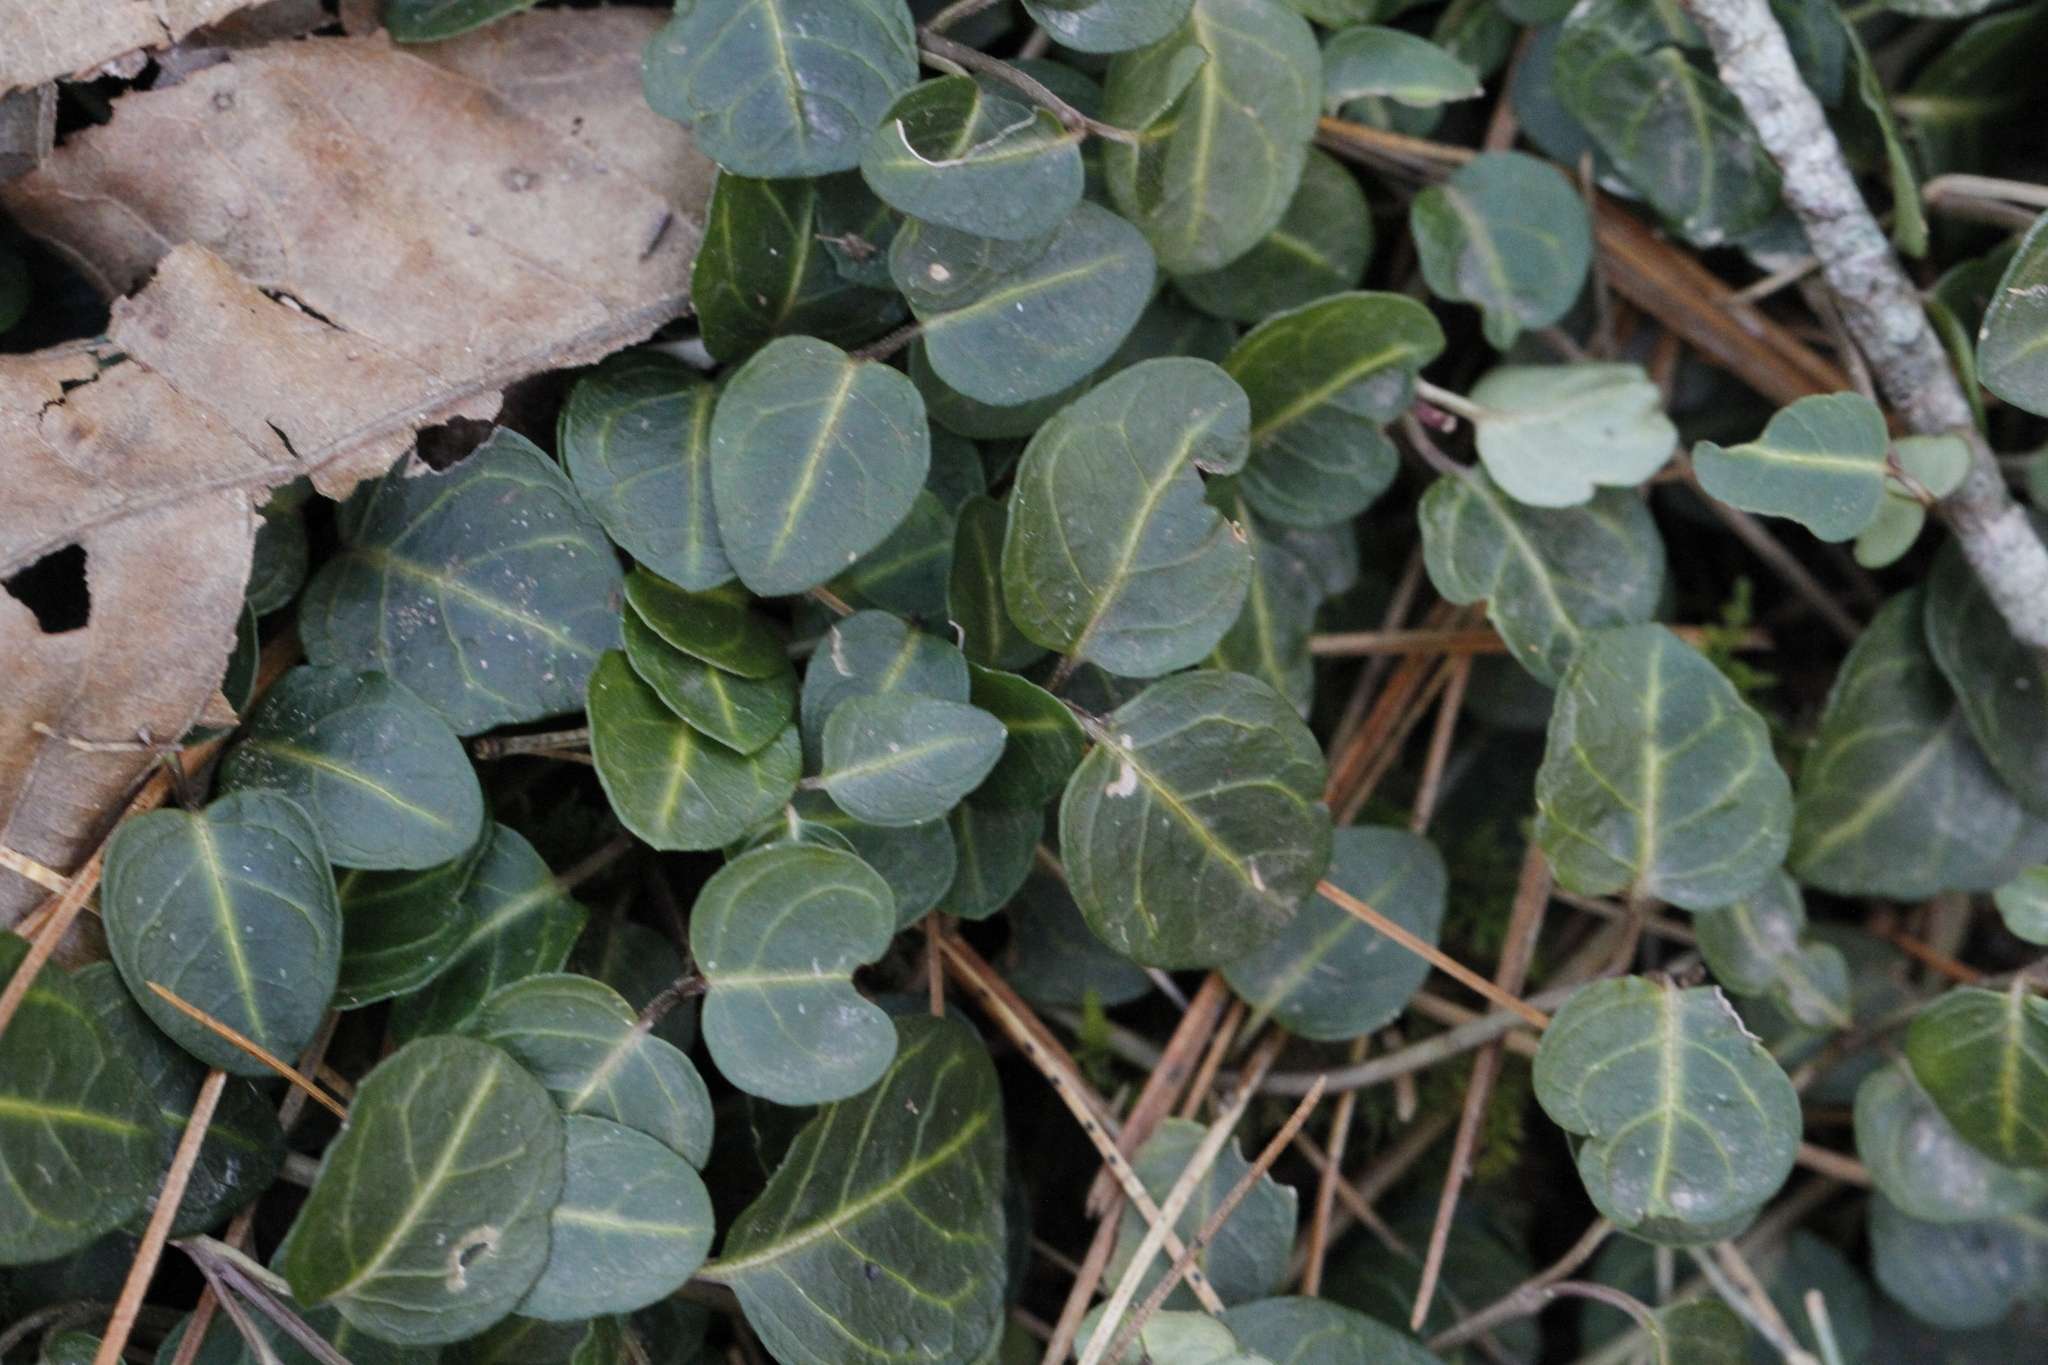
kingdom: Plantae
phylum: Tracheophyta
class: Magnoliopsida
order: Gentianales
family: Rubiaceae
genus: Mitchella
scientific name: Mitchella repens
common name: Partridge-berry
